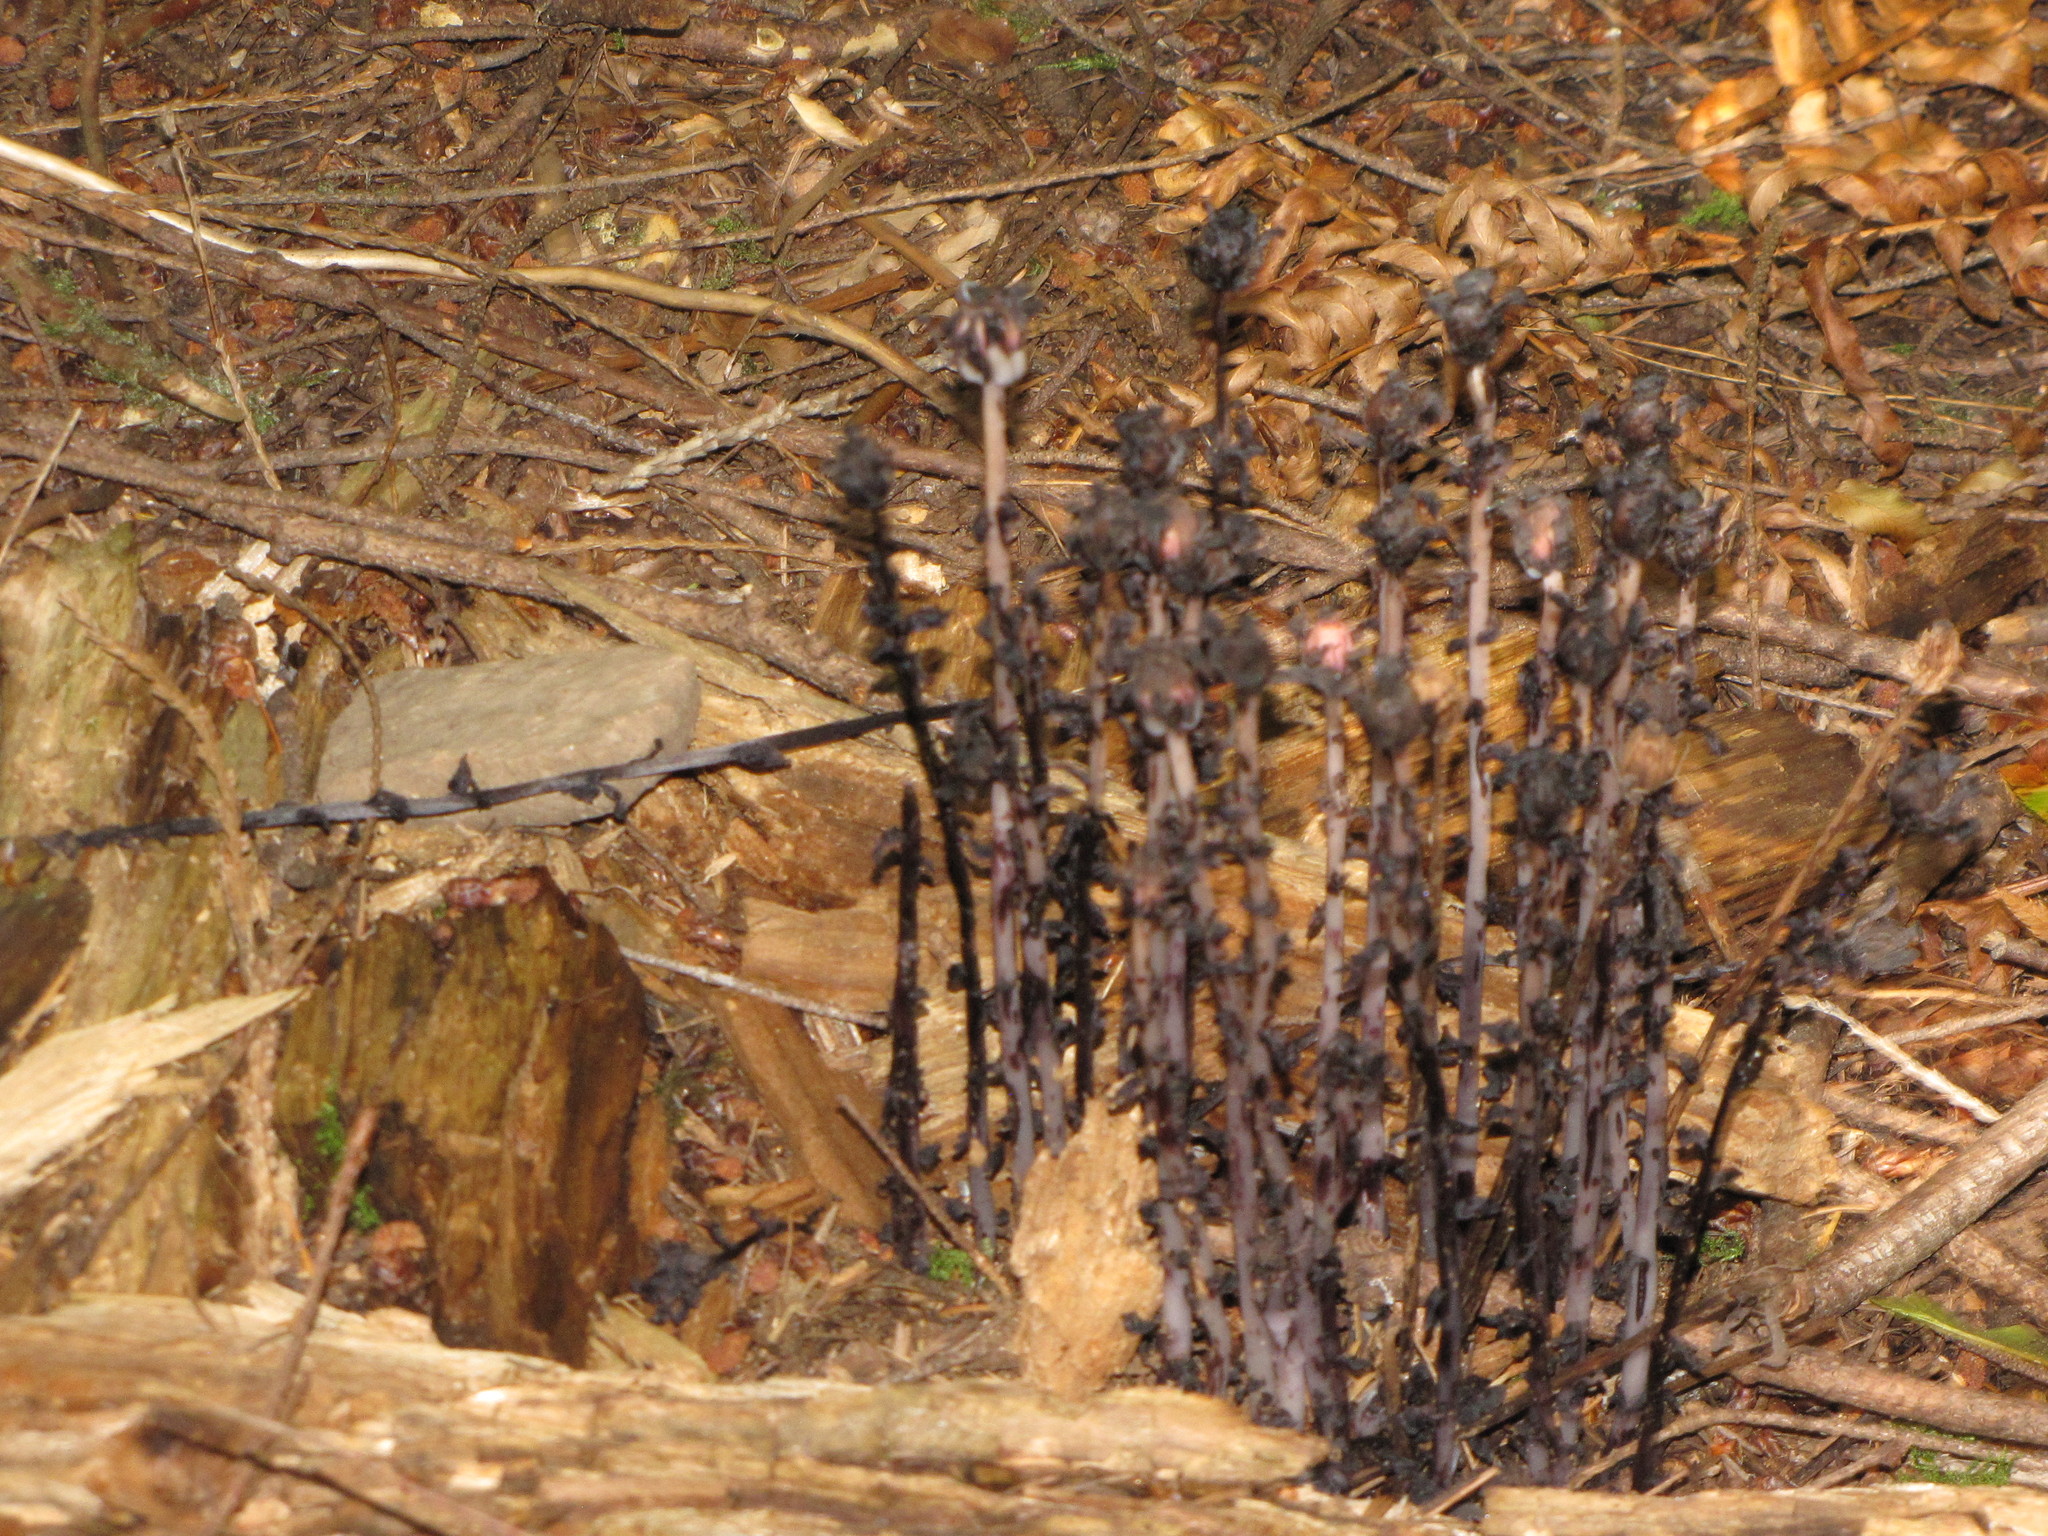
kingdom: Plantae
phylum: Tracheophyta
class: Magnoliopsida
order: Ericales
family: Ericaceae
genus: Monotropa
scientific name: Monotropa uniflora
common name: Convulsion root
